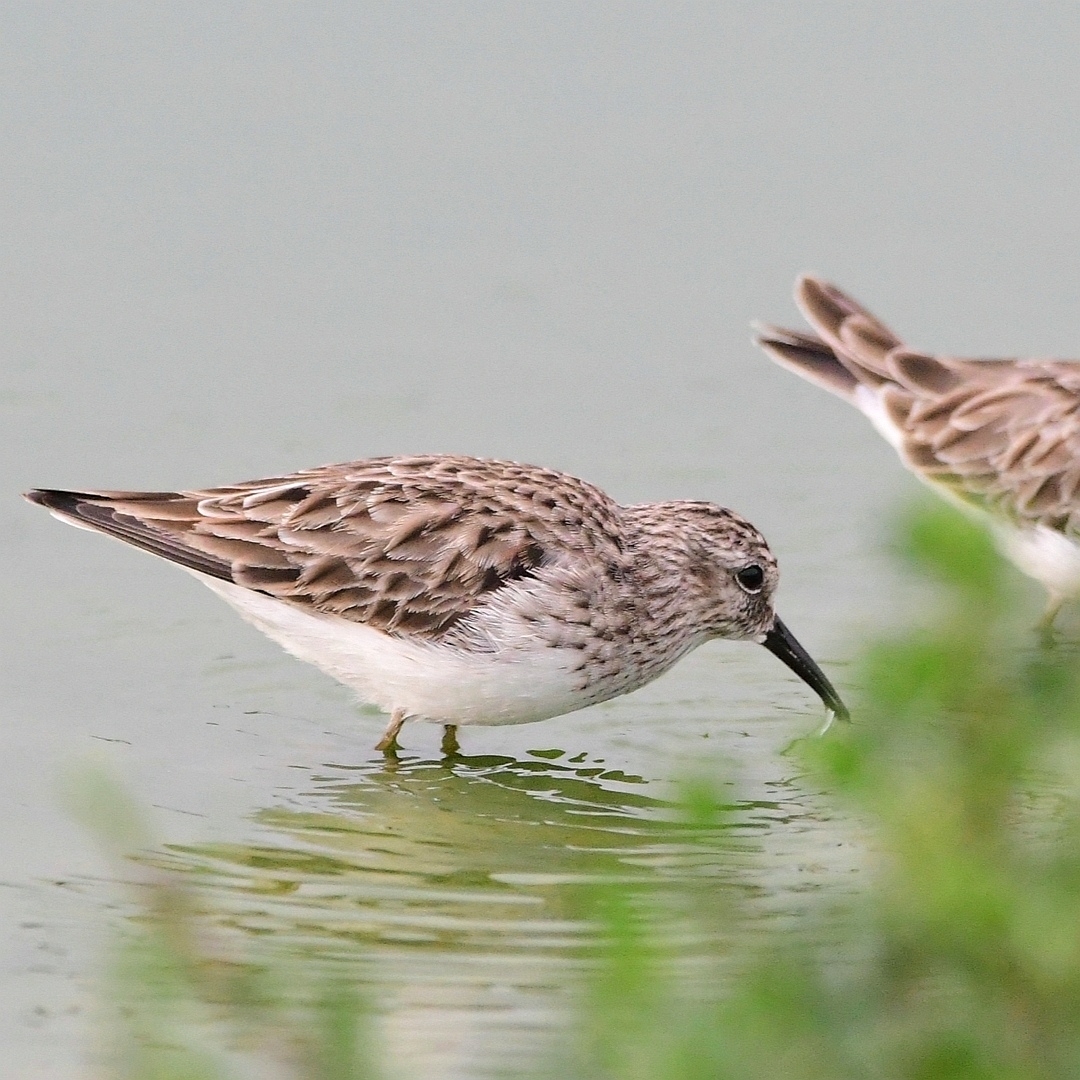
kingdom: Animalia
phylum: Chordata
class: Aves
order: Charadriiformes
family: Scolopacidae
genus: Calidris
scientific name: Calidris minutilla
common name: Least sandpiper
